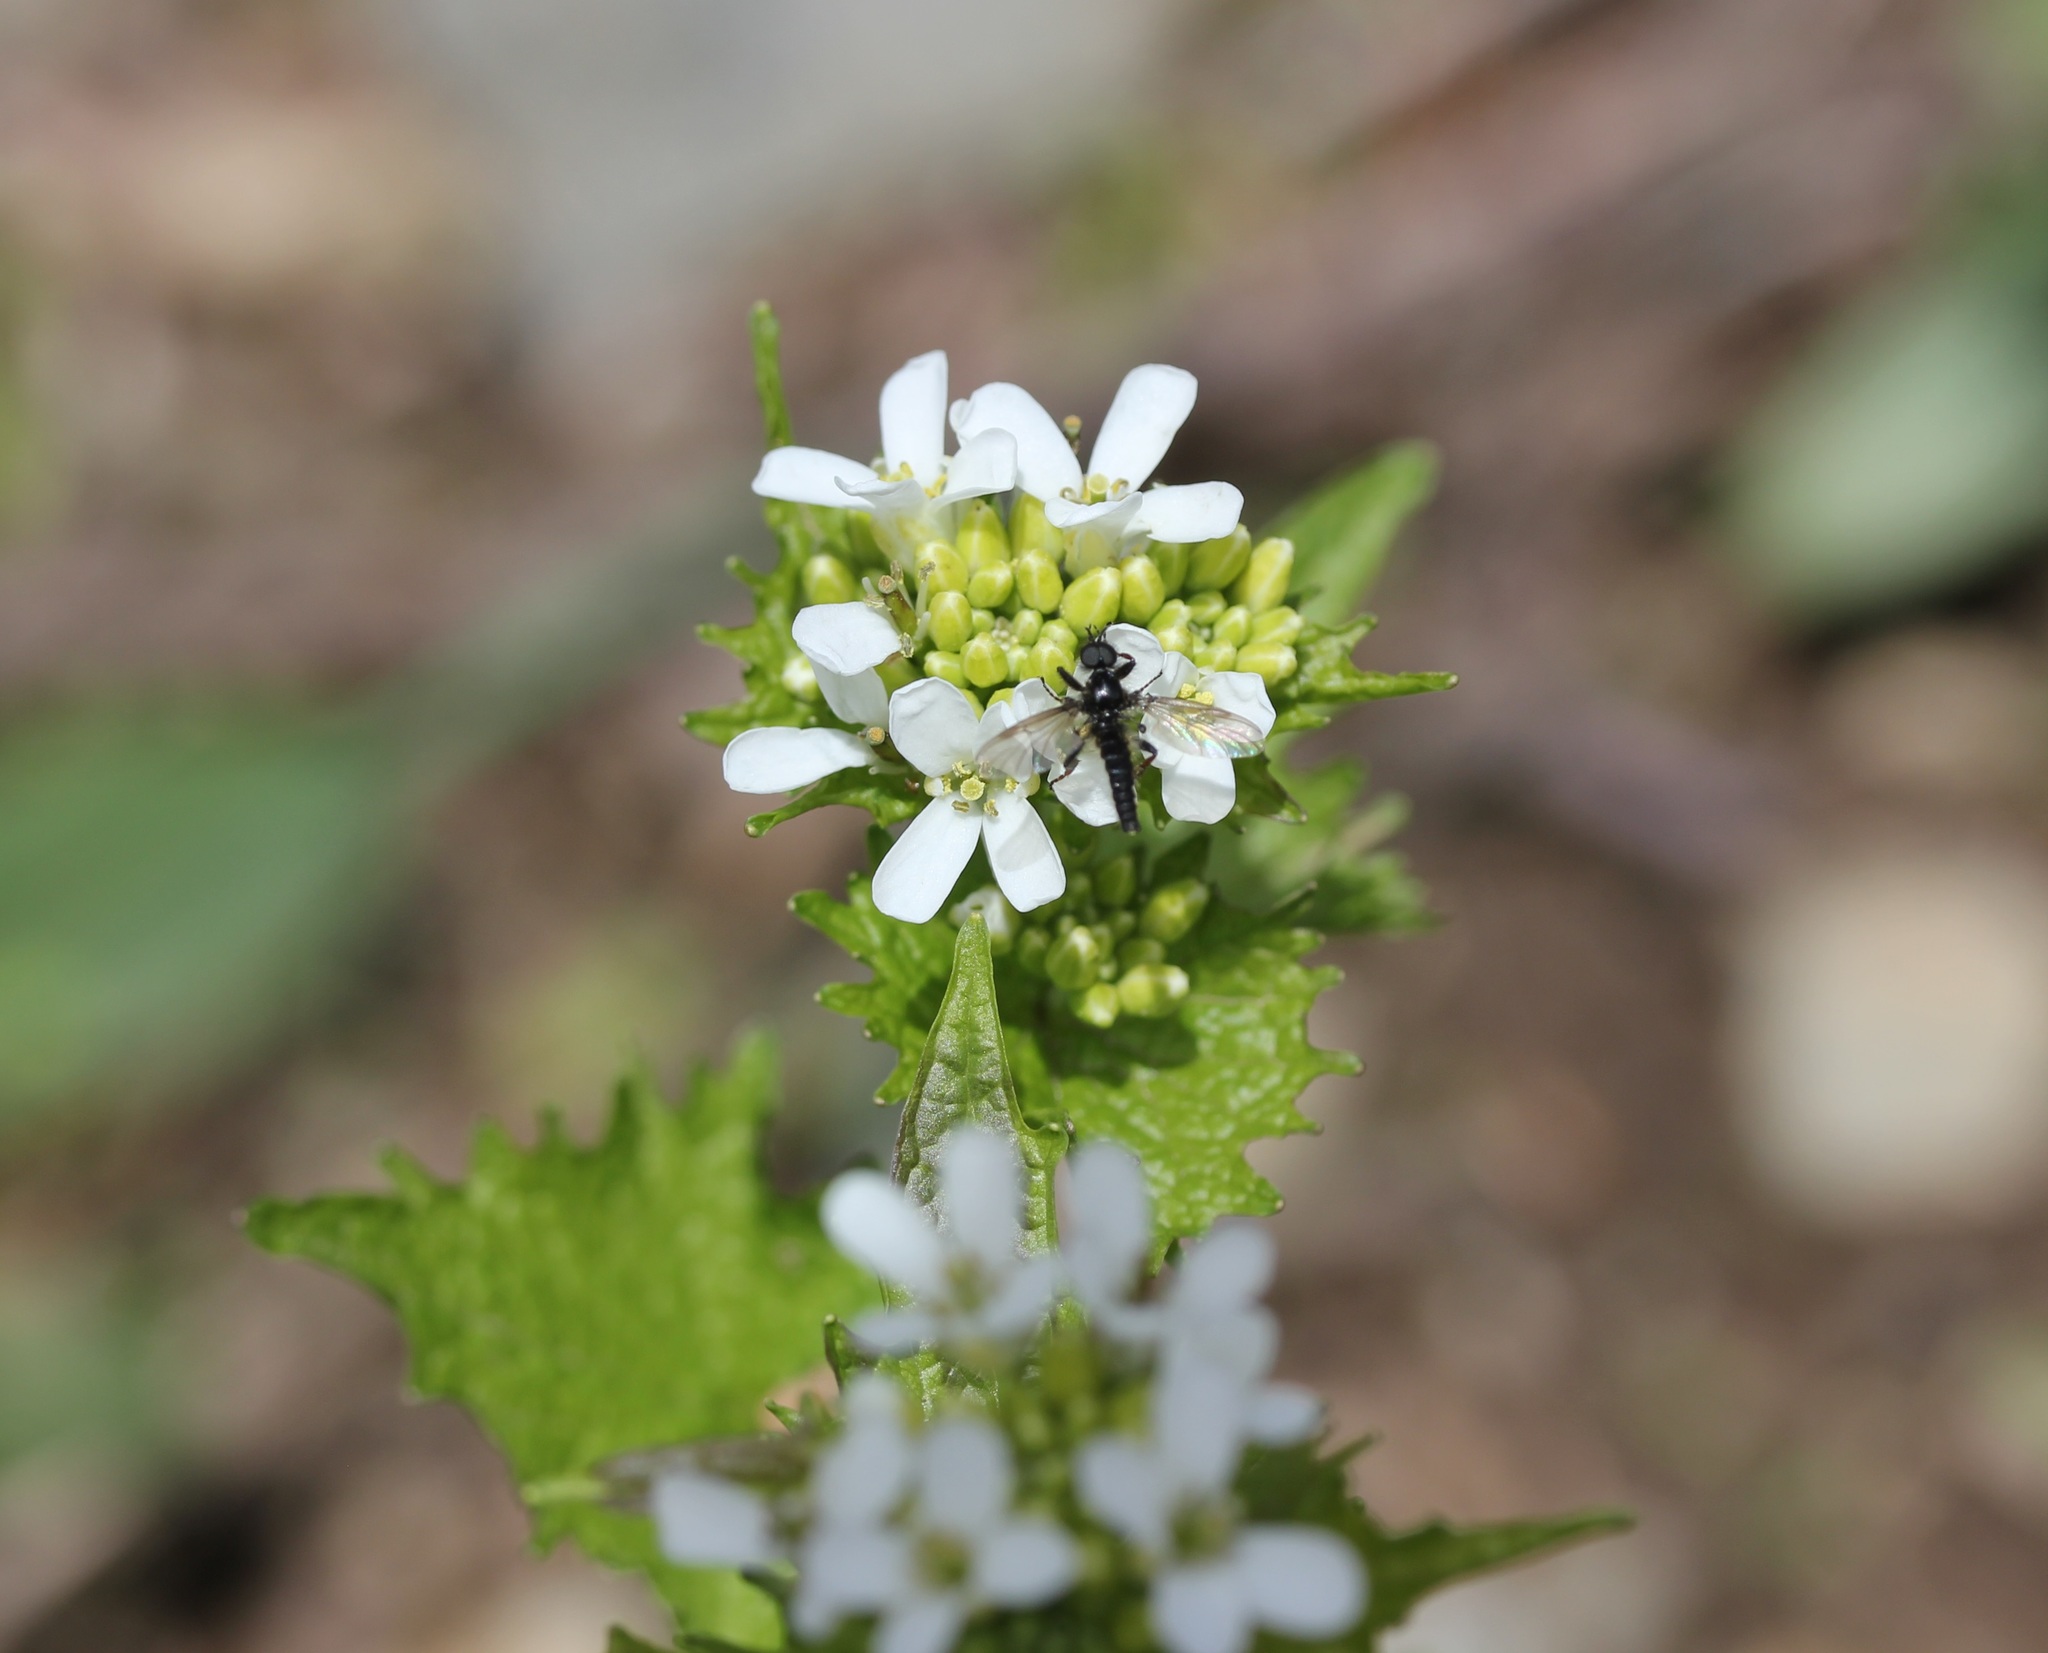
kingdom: Plantae
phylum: Tracheophyta
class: Magnoliopsida
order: Brassicales
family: Brassicaceae
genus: Alliaria
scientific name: Alliaria petiolata
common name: Garlic mustard
